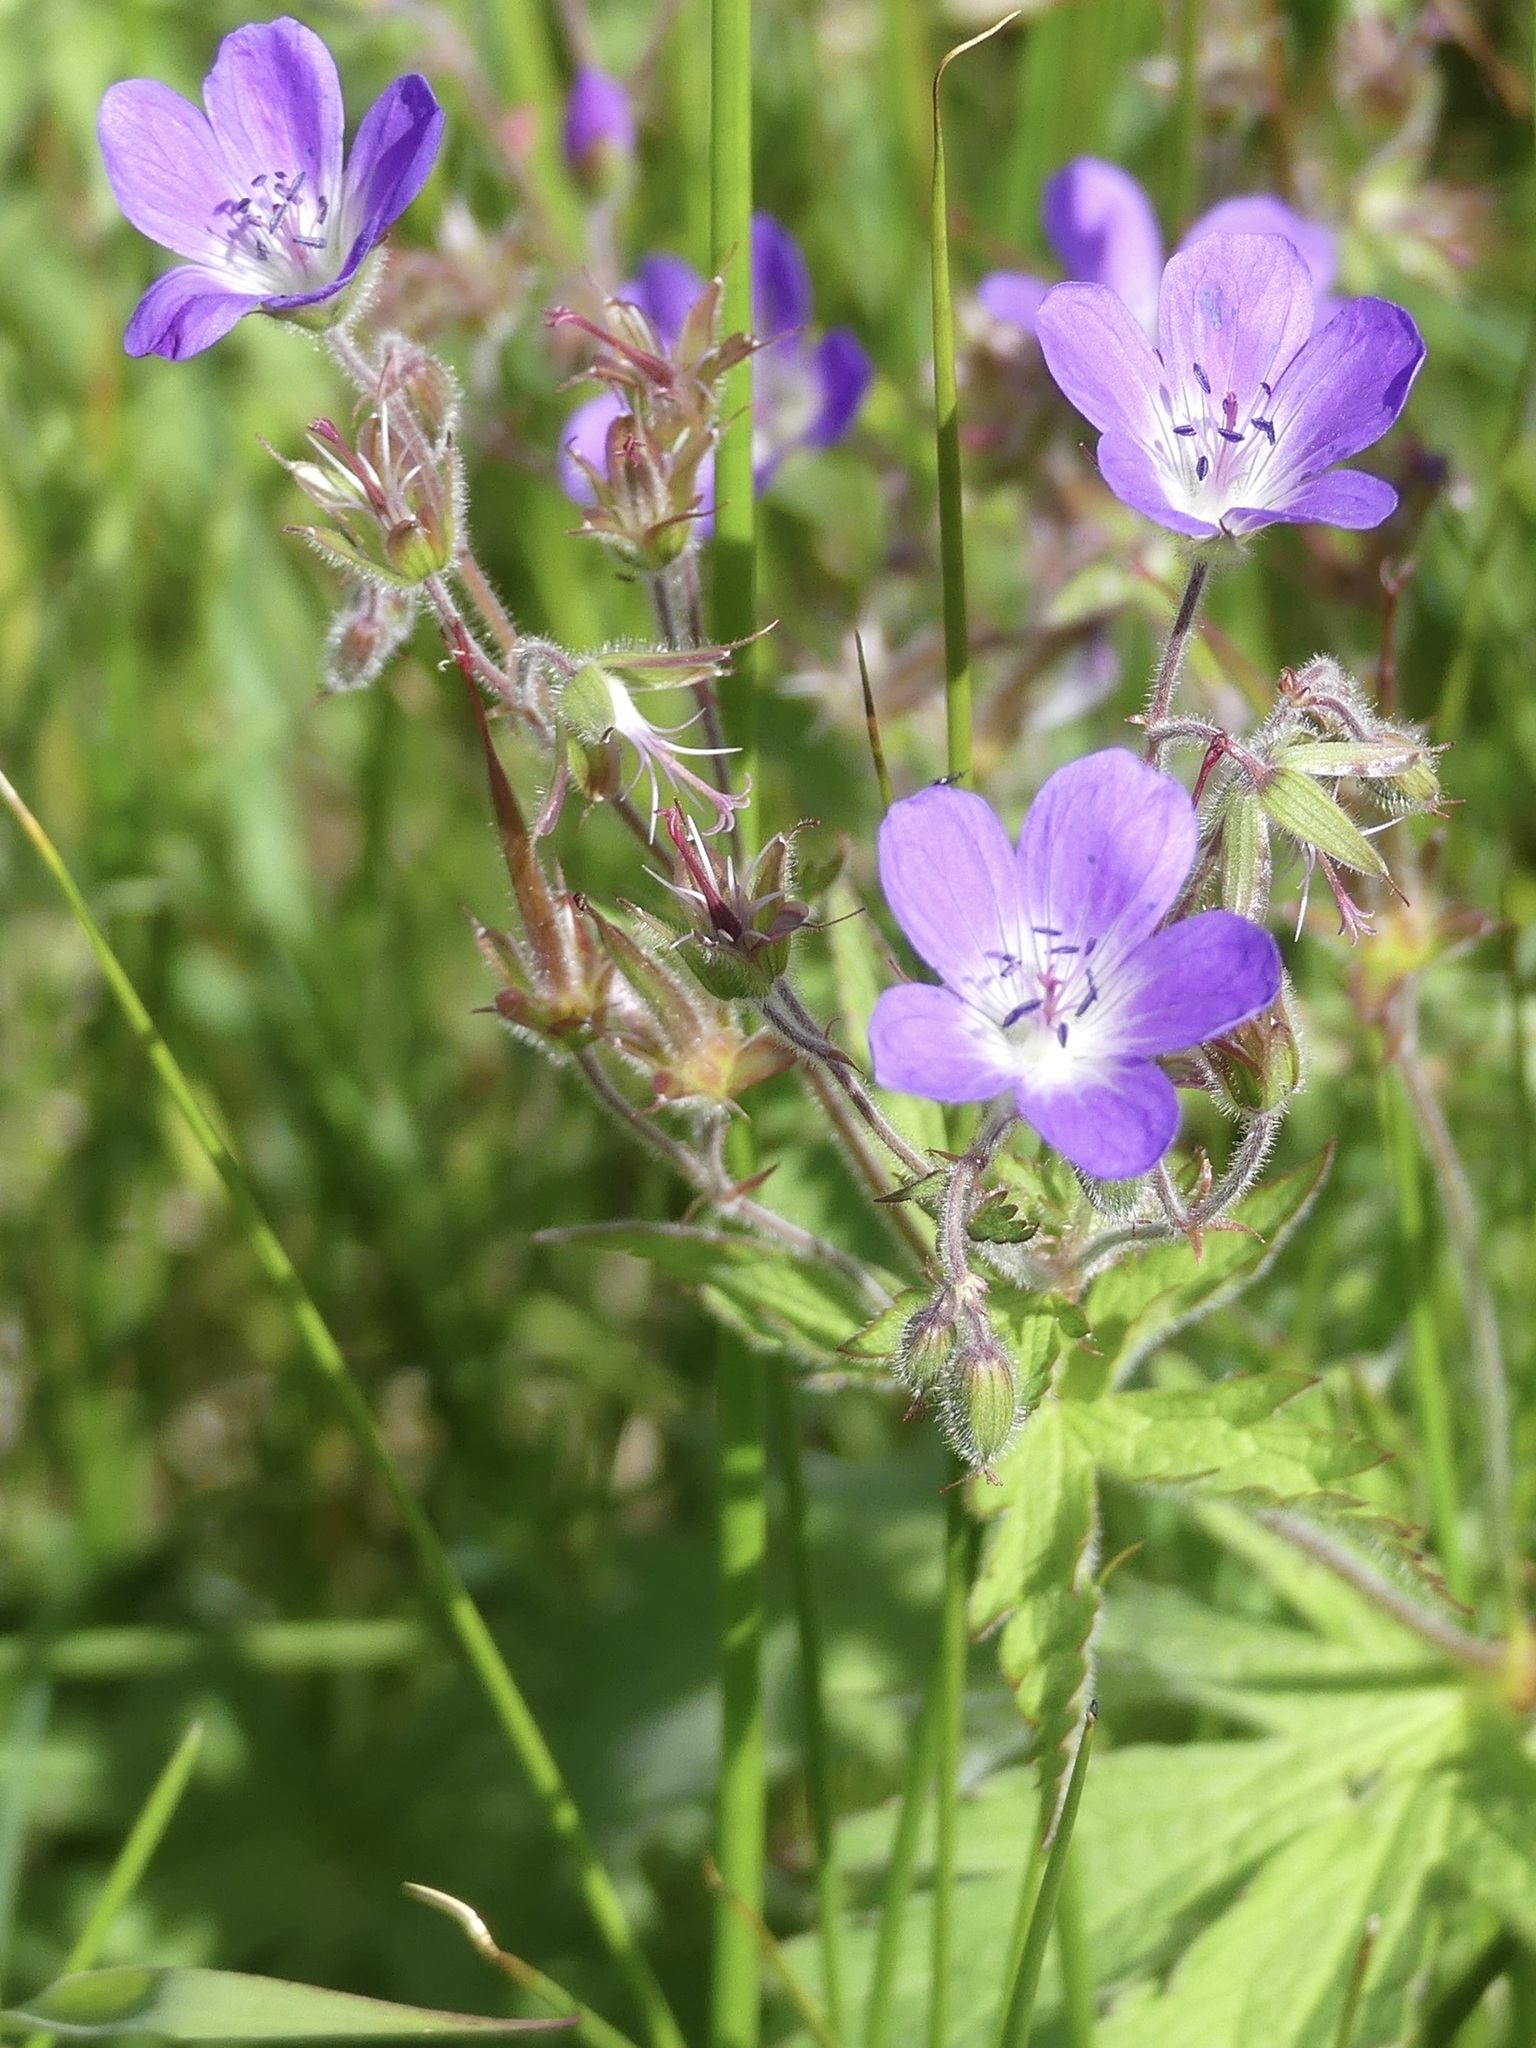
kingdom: Plantae
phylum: Tracheophyta
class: Magnoliopsida
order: Geraniales
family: Geraniaceae
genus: Geranium
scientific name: Geranium sylvaticum
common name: Wood crane's-bill
